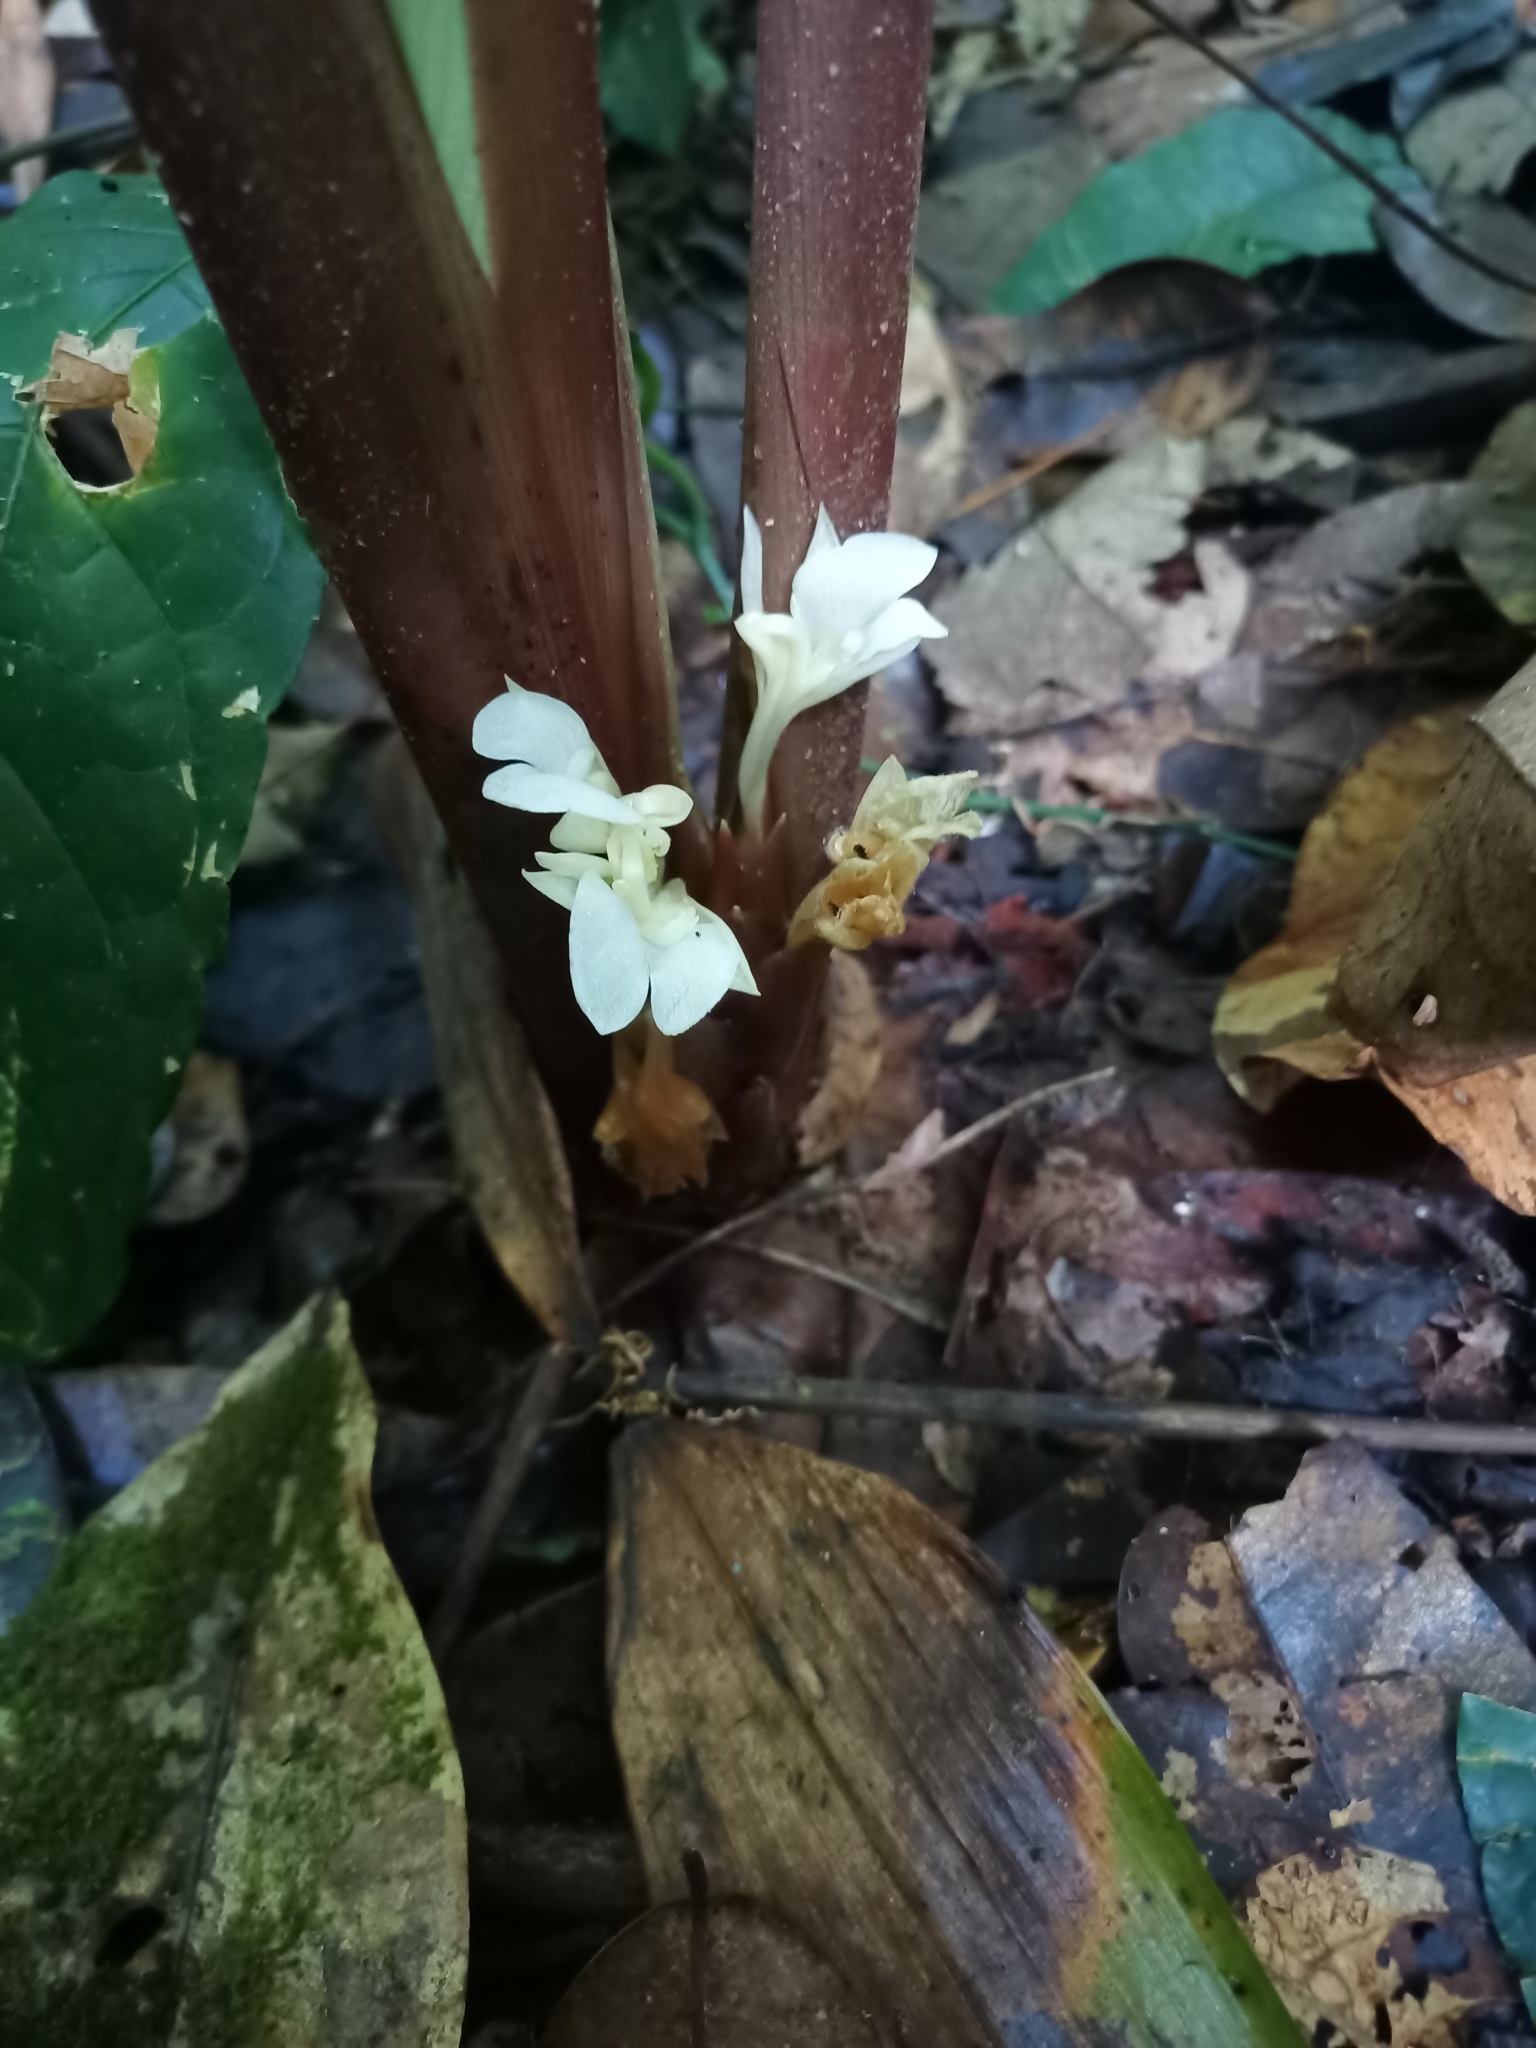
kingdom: Plantae
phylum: Tracheophyta
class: Liliopsida
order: Zingiberales
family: Marantaceae
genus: Goeppertia
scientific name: Goeppertia propinqua
